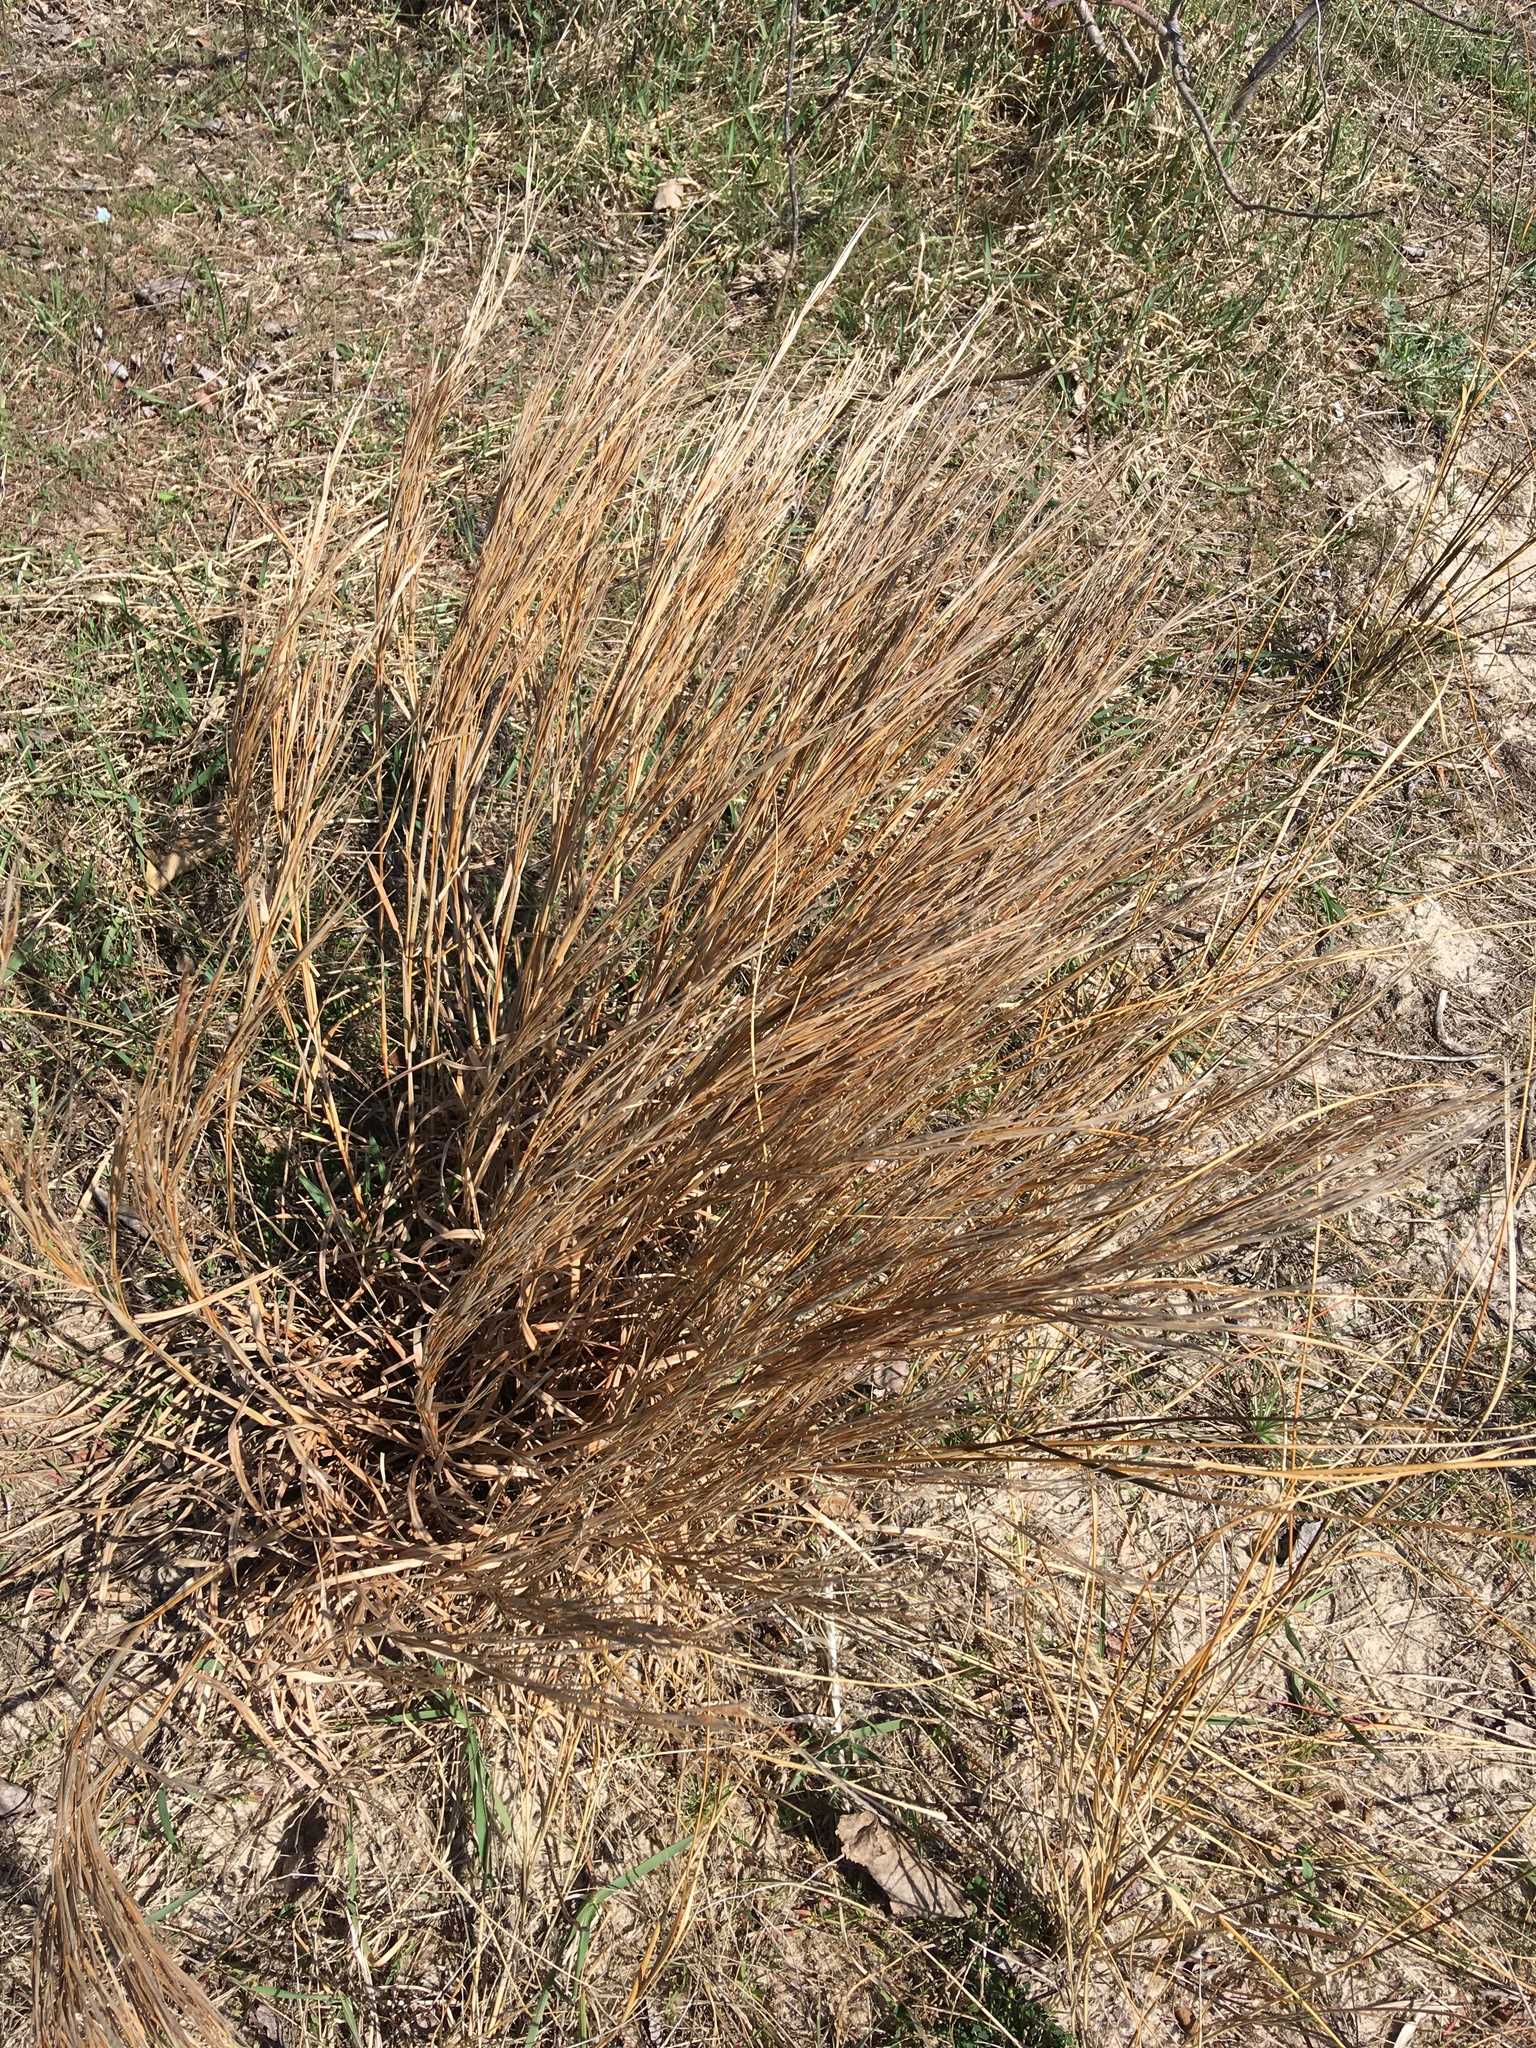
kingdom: Plantae
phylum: Tracheophyta
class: Liliopsida
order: Poales
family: Poaceae
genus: Schizachyrium
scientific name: Schizachyrium scoparium
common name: Little bluestem
